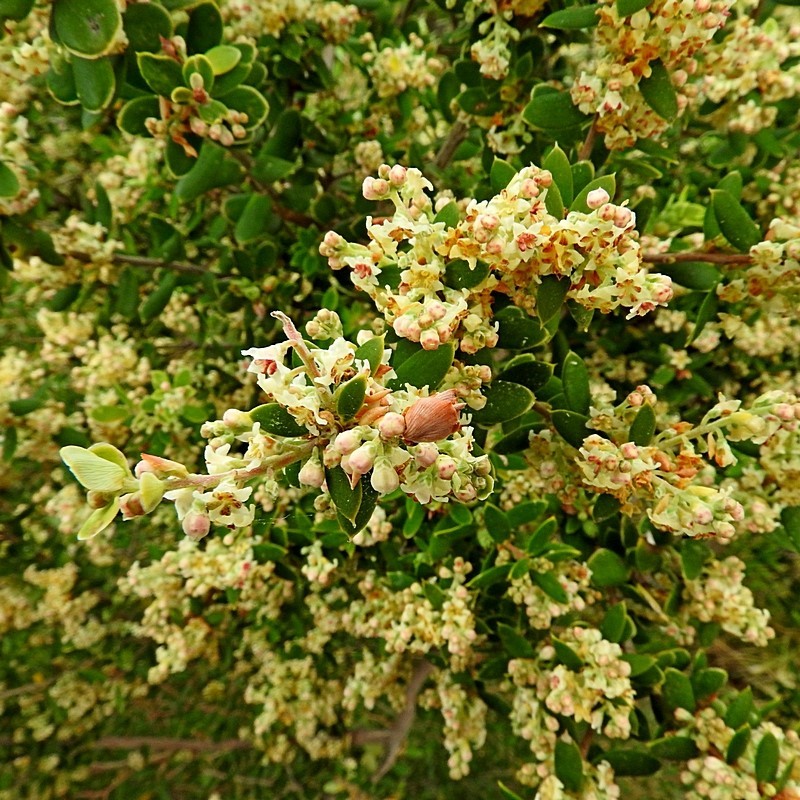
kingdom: Plantae
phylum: Tracheophyta
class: Magnoliopsida
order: Ericales
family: Ericaceae
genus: Monotoca
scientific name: Monotoca elliptica
